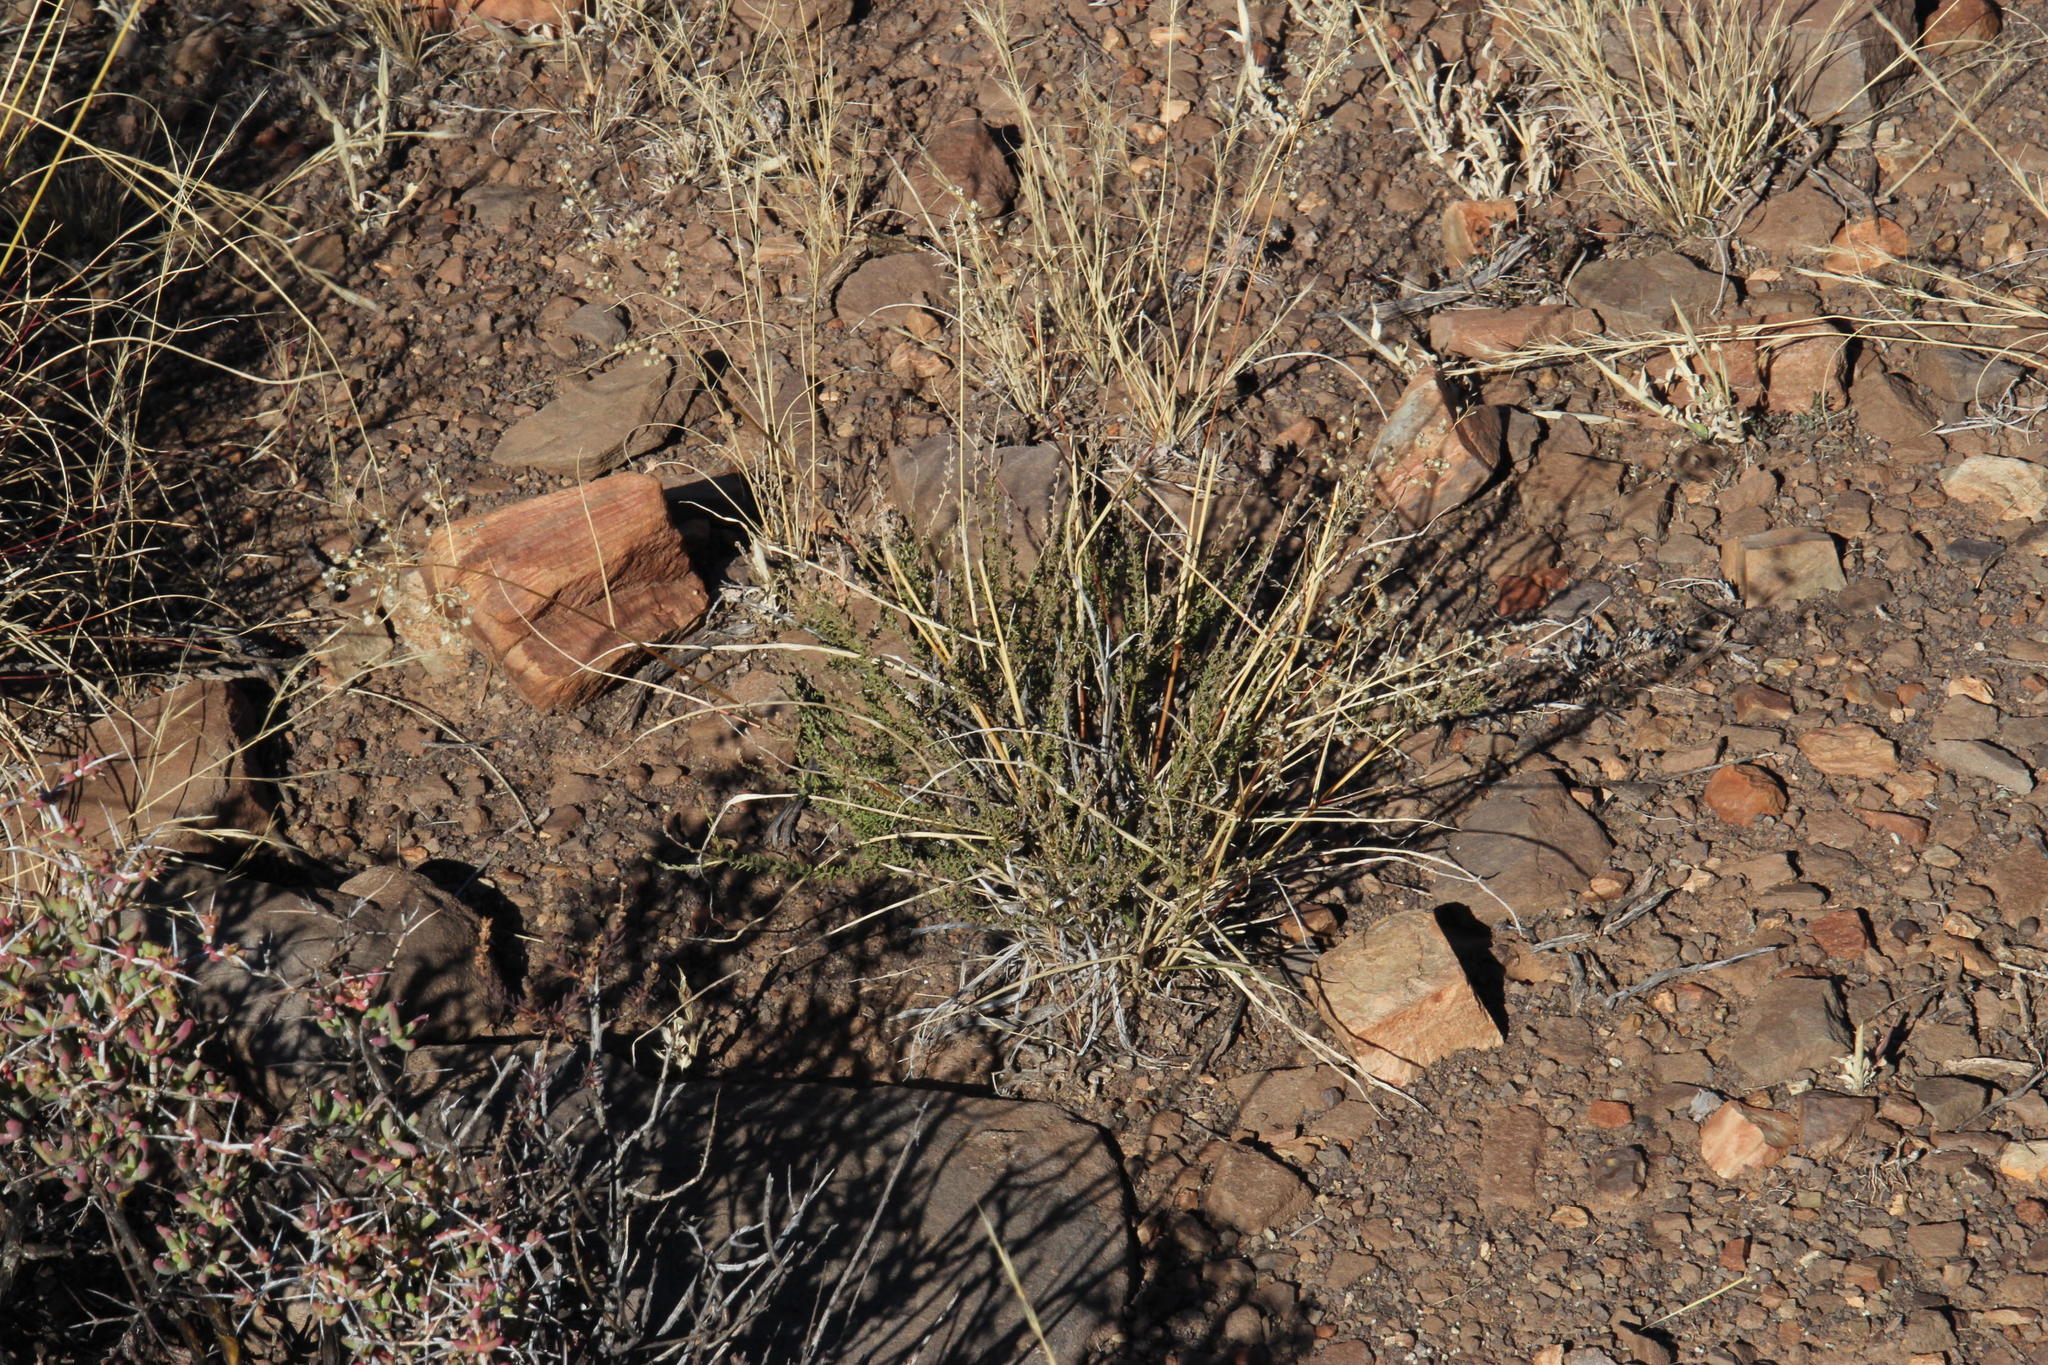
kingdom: Plantae
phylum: Tracheophyta
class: Liliopsida
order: Poales
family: Poaceae
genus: Eragrostis
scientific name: Eragrostis obtusa
